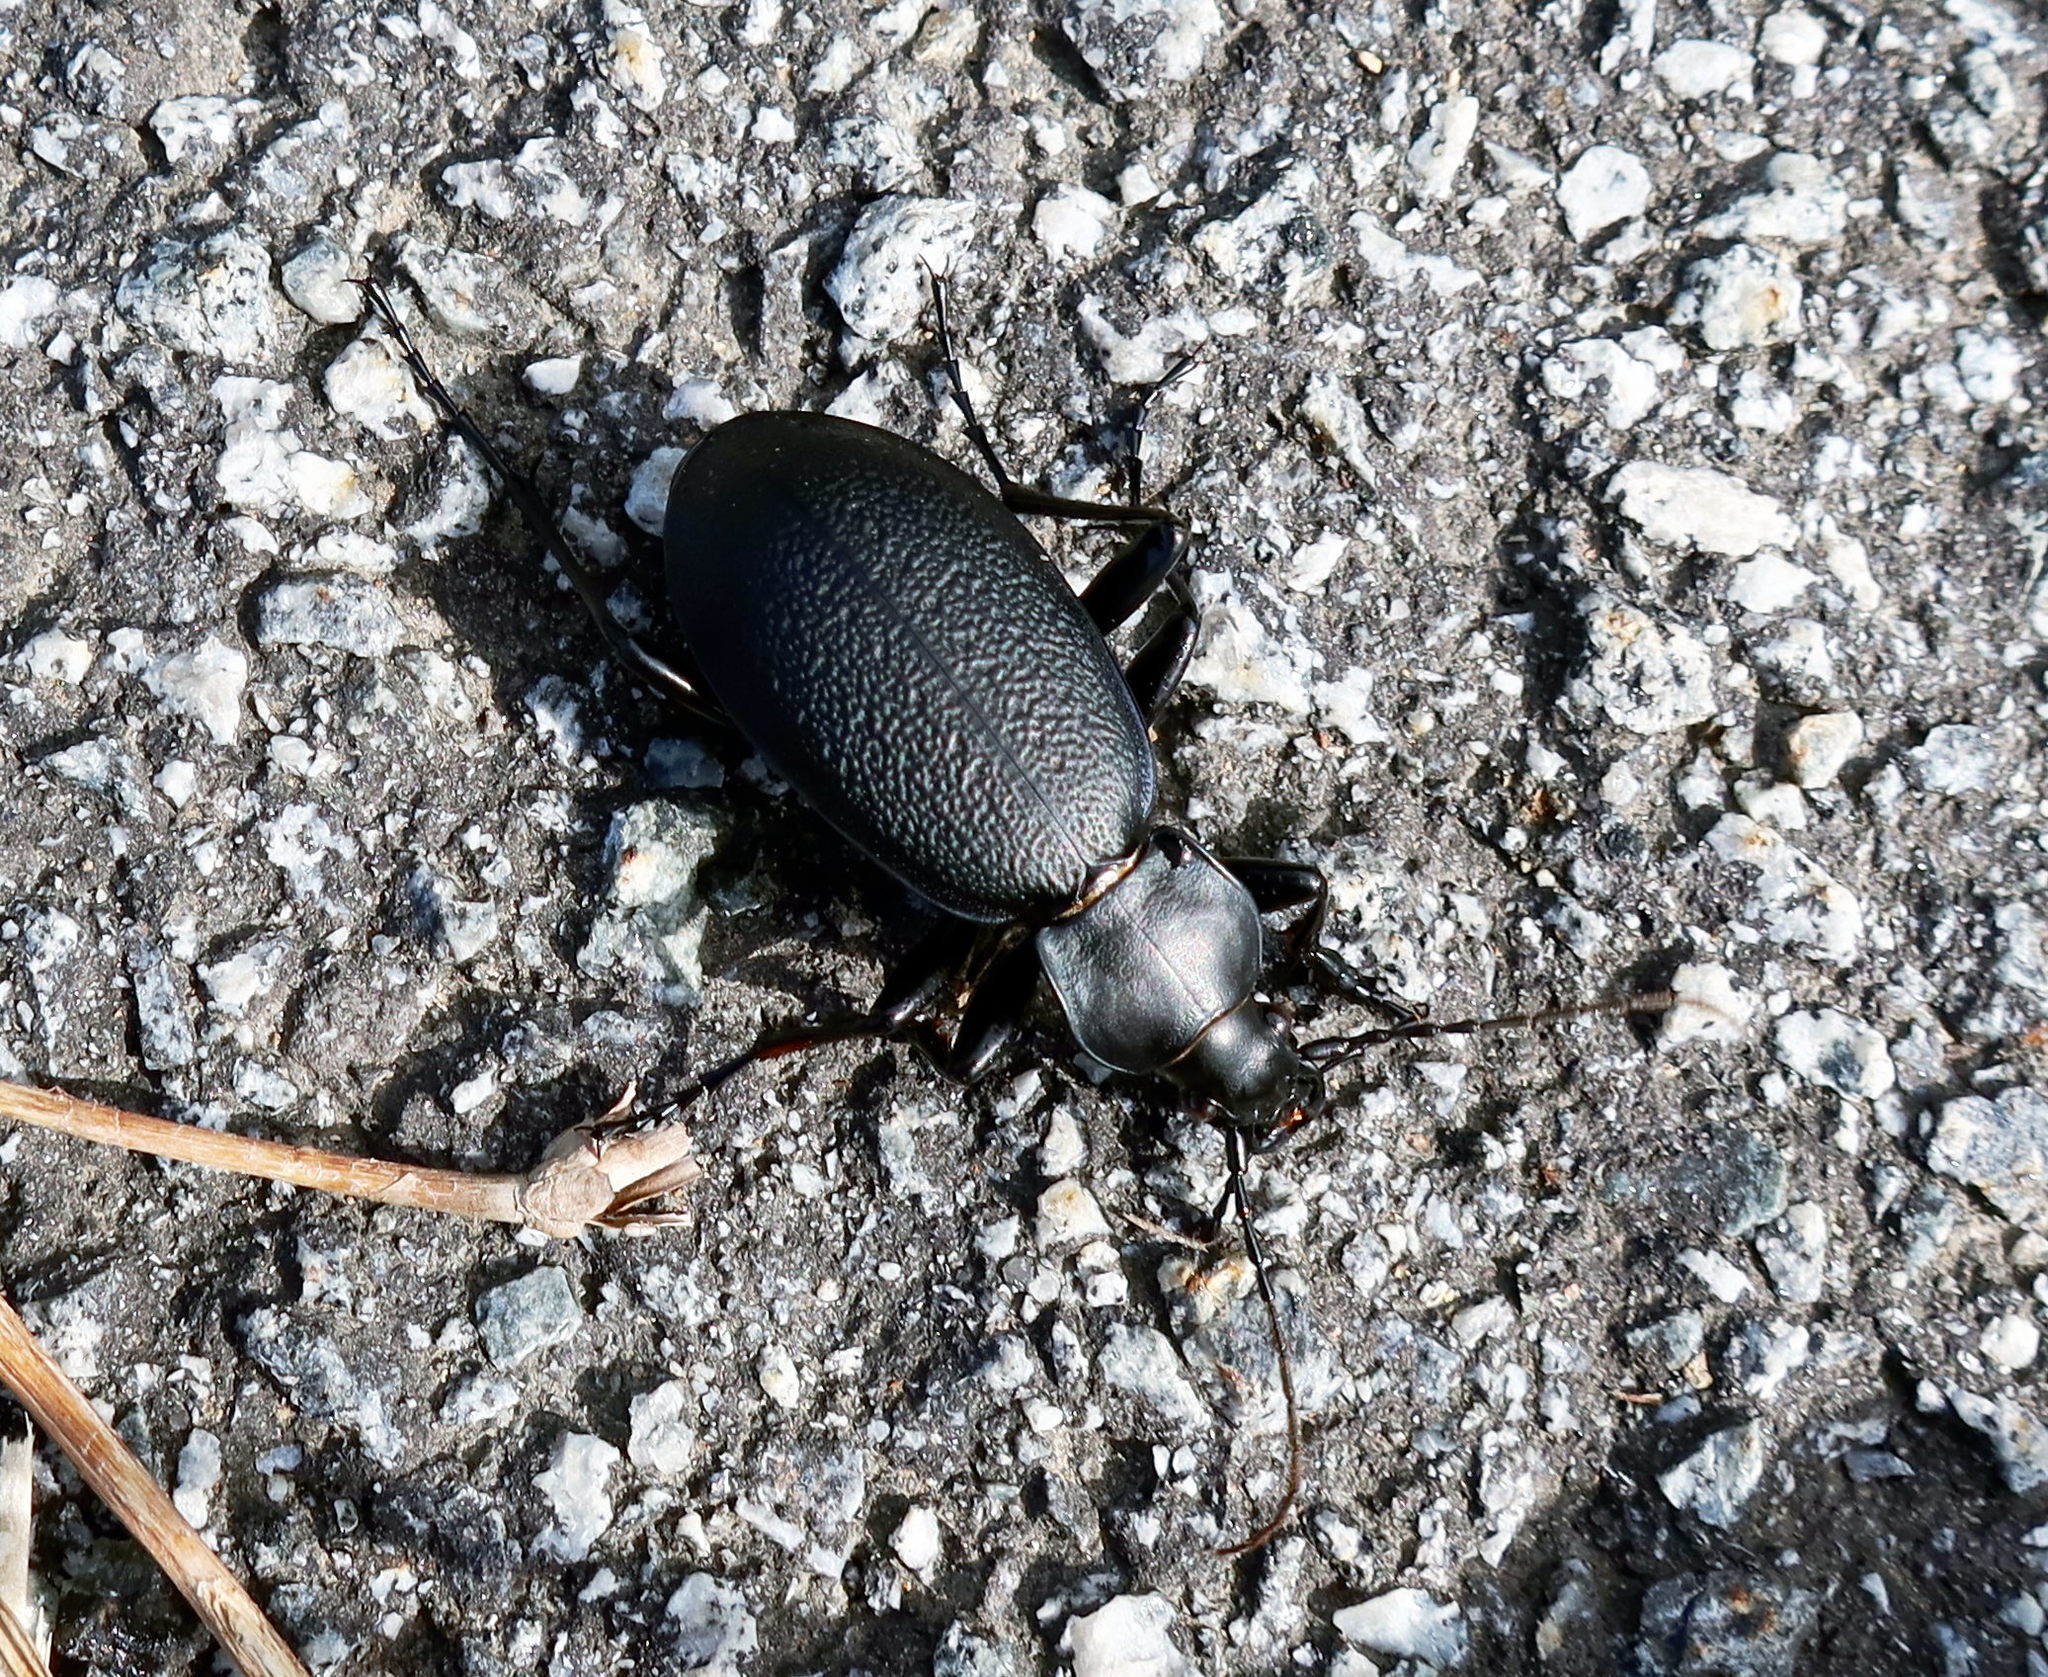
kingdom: Animalia
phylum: Arthropoda
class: Insecta
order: Coleoptera
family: Carabidae
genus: Carabus
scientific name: Carabus coriaceus
